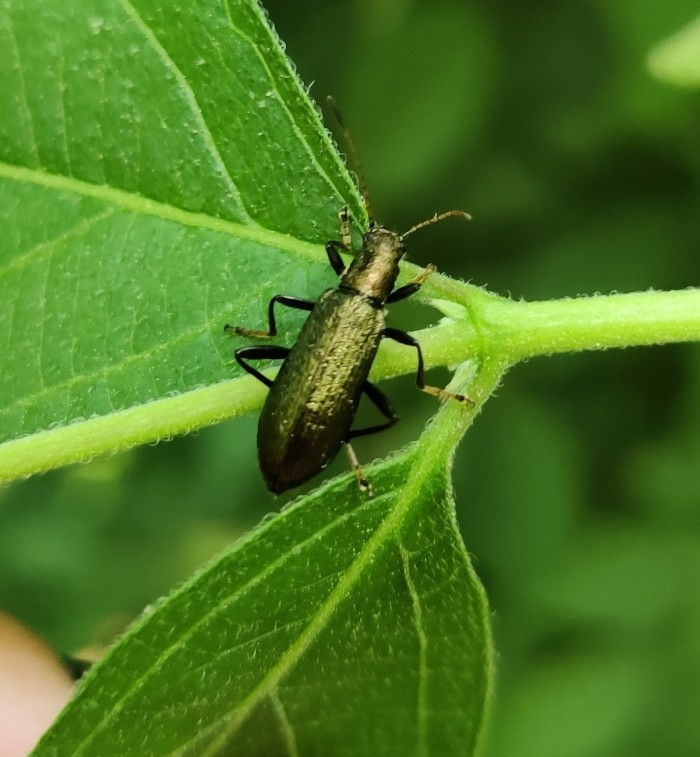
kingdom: Animalia
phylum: Arthropoda
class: Insecta
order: Coleoptera
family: Tenebrionidae
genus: Arthromacra
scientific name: Arthromacra aenea
